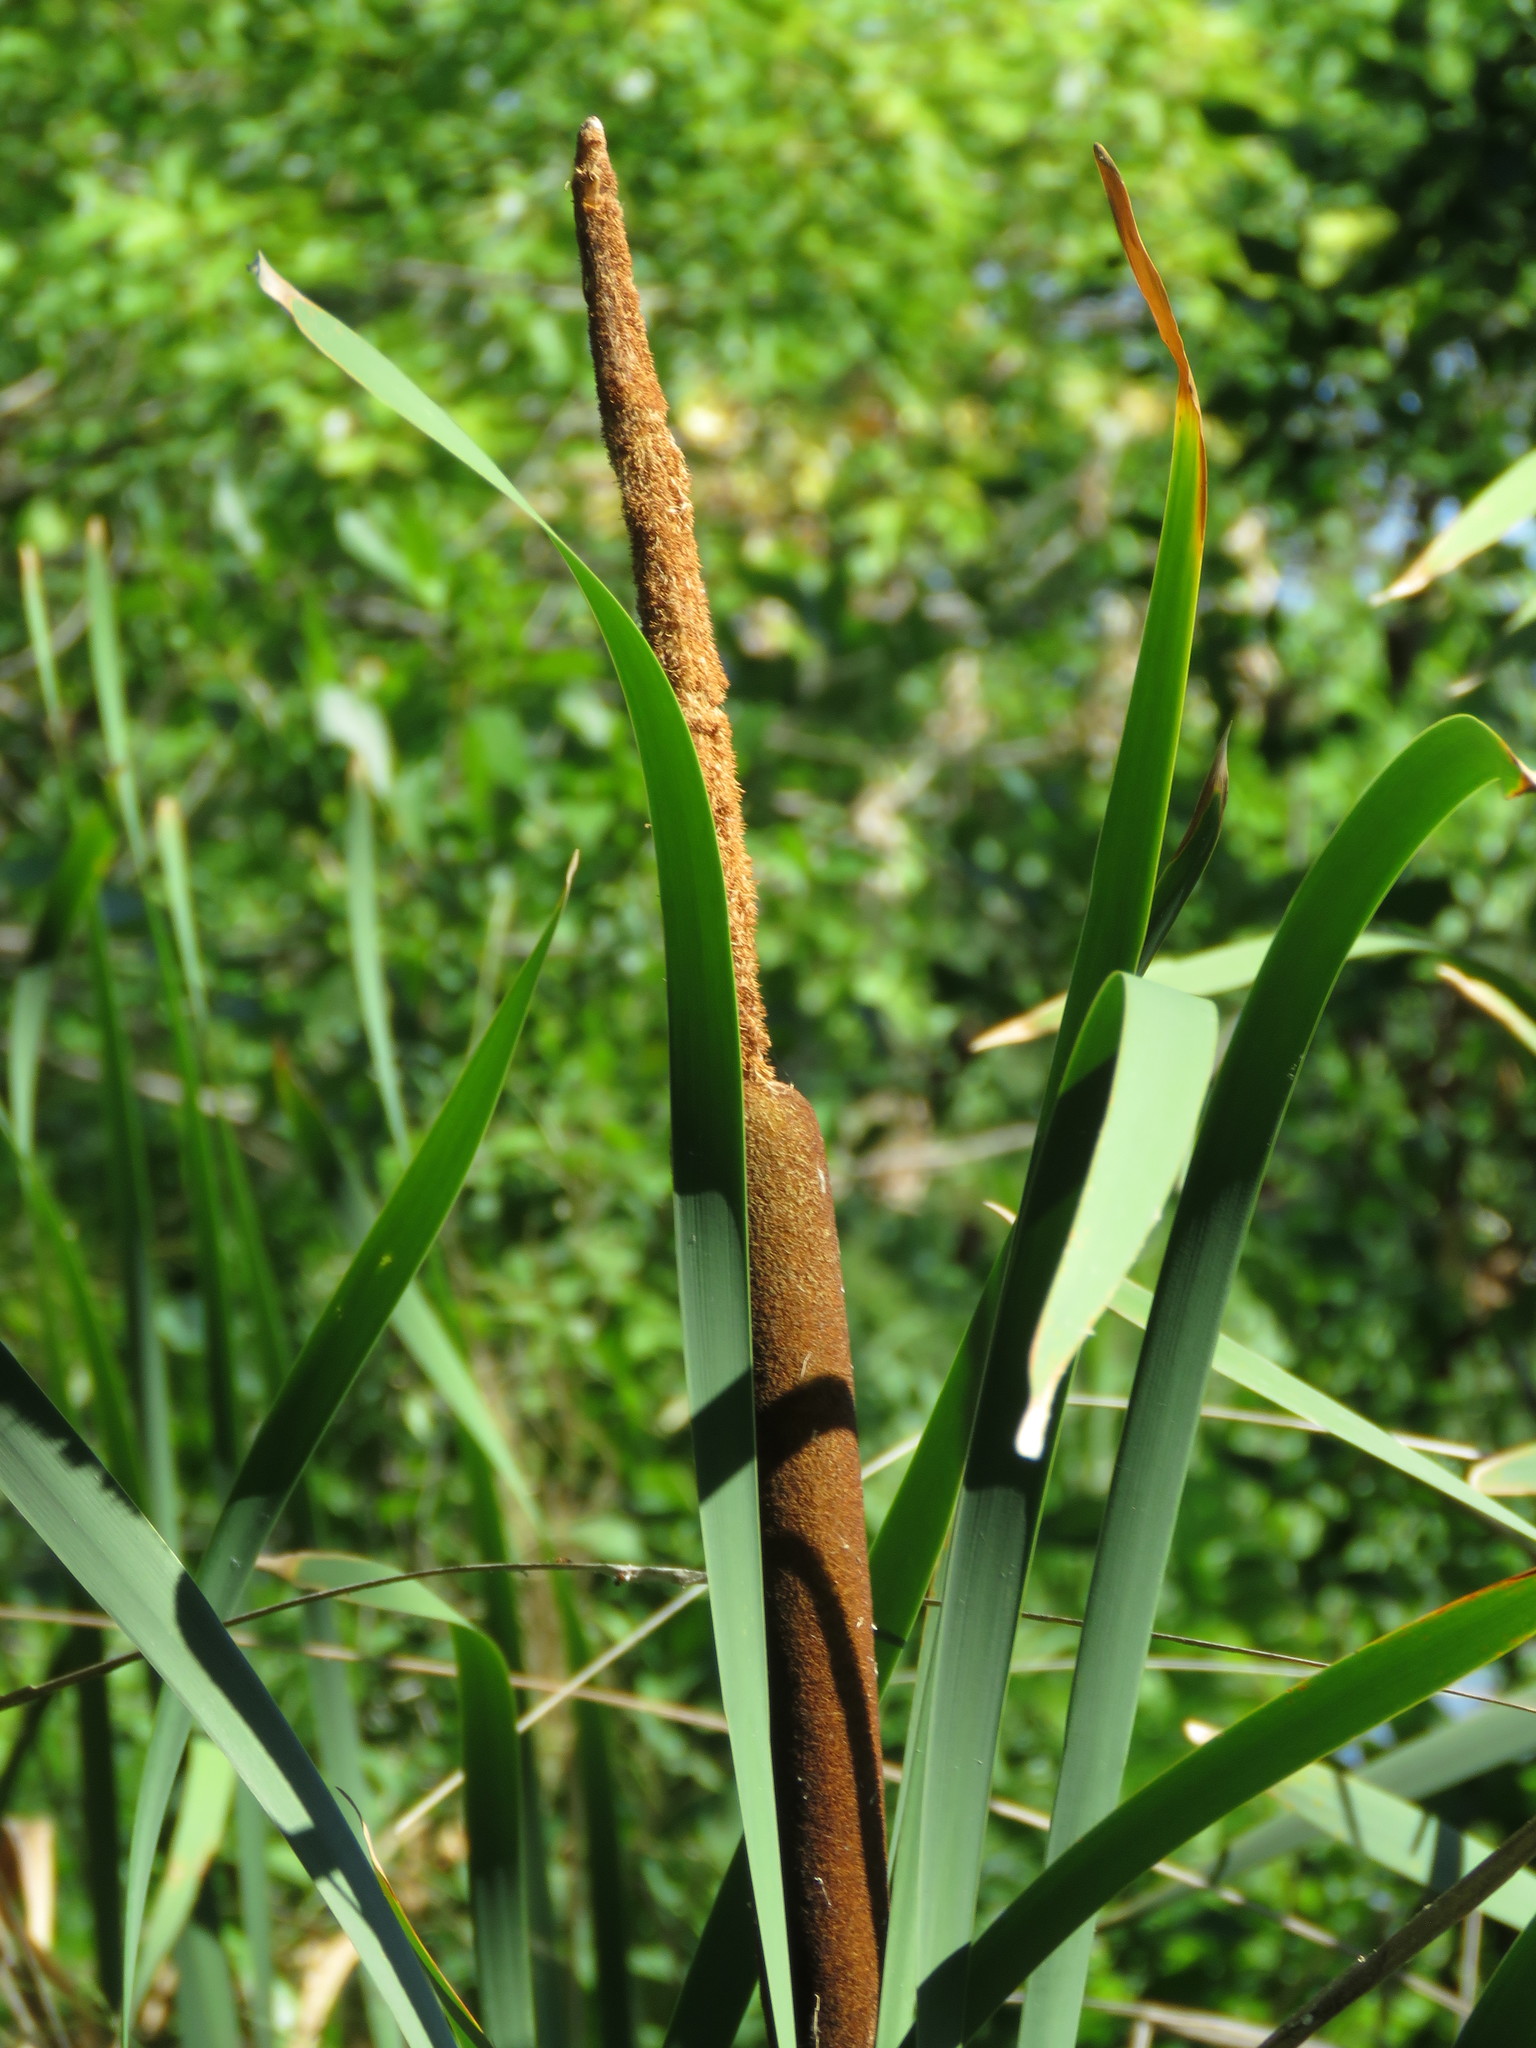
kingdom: Plantae
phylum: Tracheophyta
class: Liliopsida
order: Poales
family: Typhaceae
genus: Typha
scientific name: Typha latifolia
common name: Broadleaf cattail
